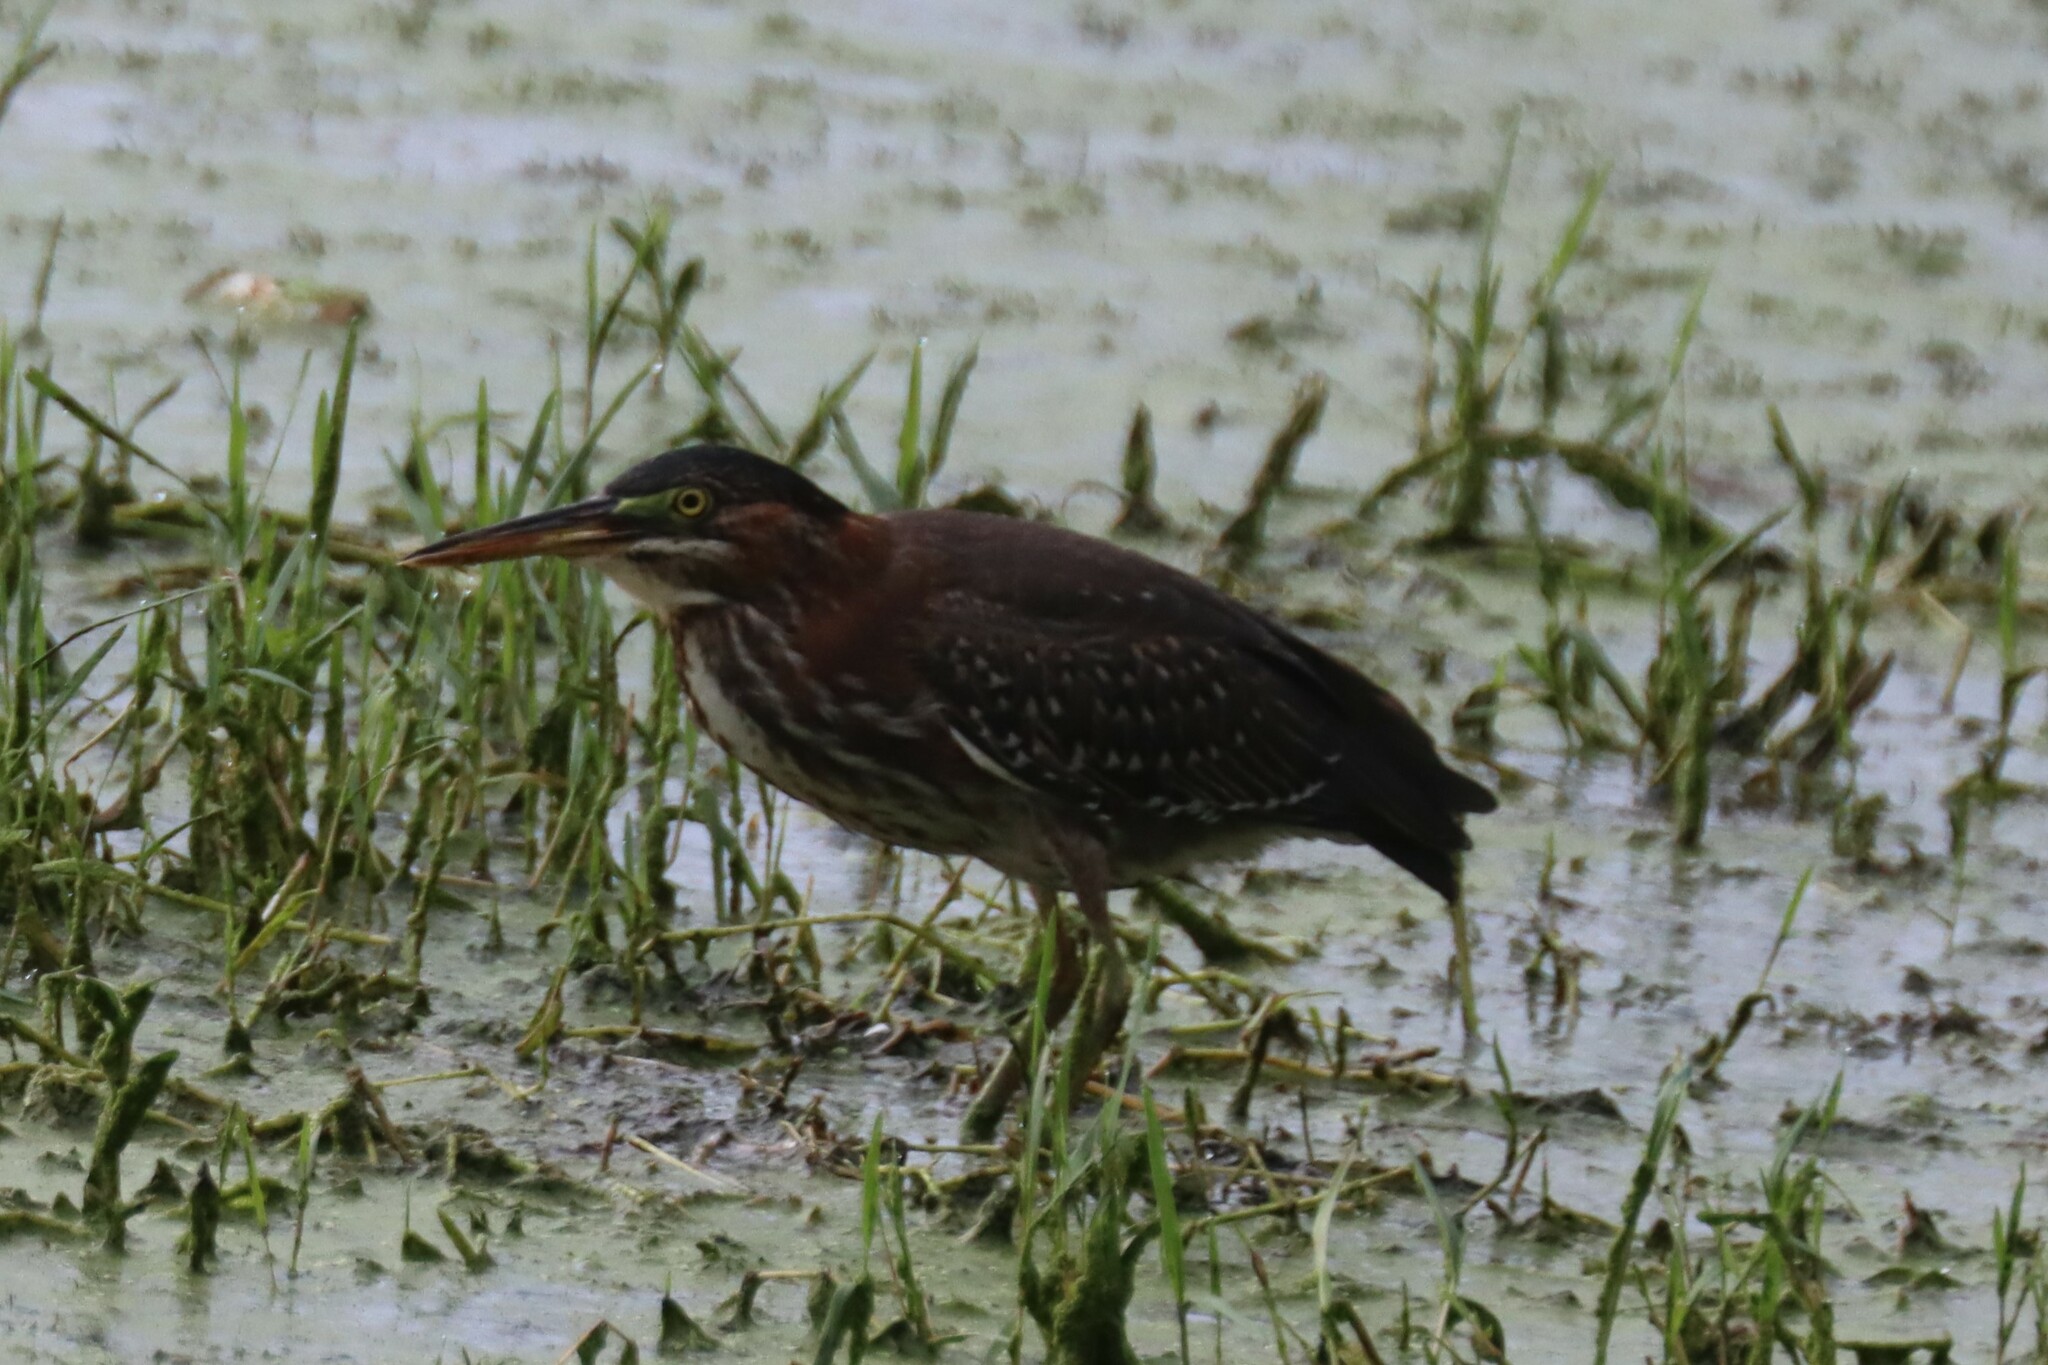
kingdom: Animalia
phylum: Chordata
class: Aves
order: Pelecaniformes
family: Ardeidae
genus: Butorides
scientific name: Butorides virescens
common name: Green heron
